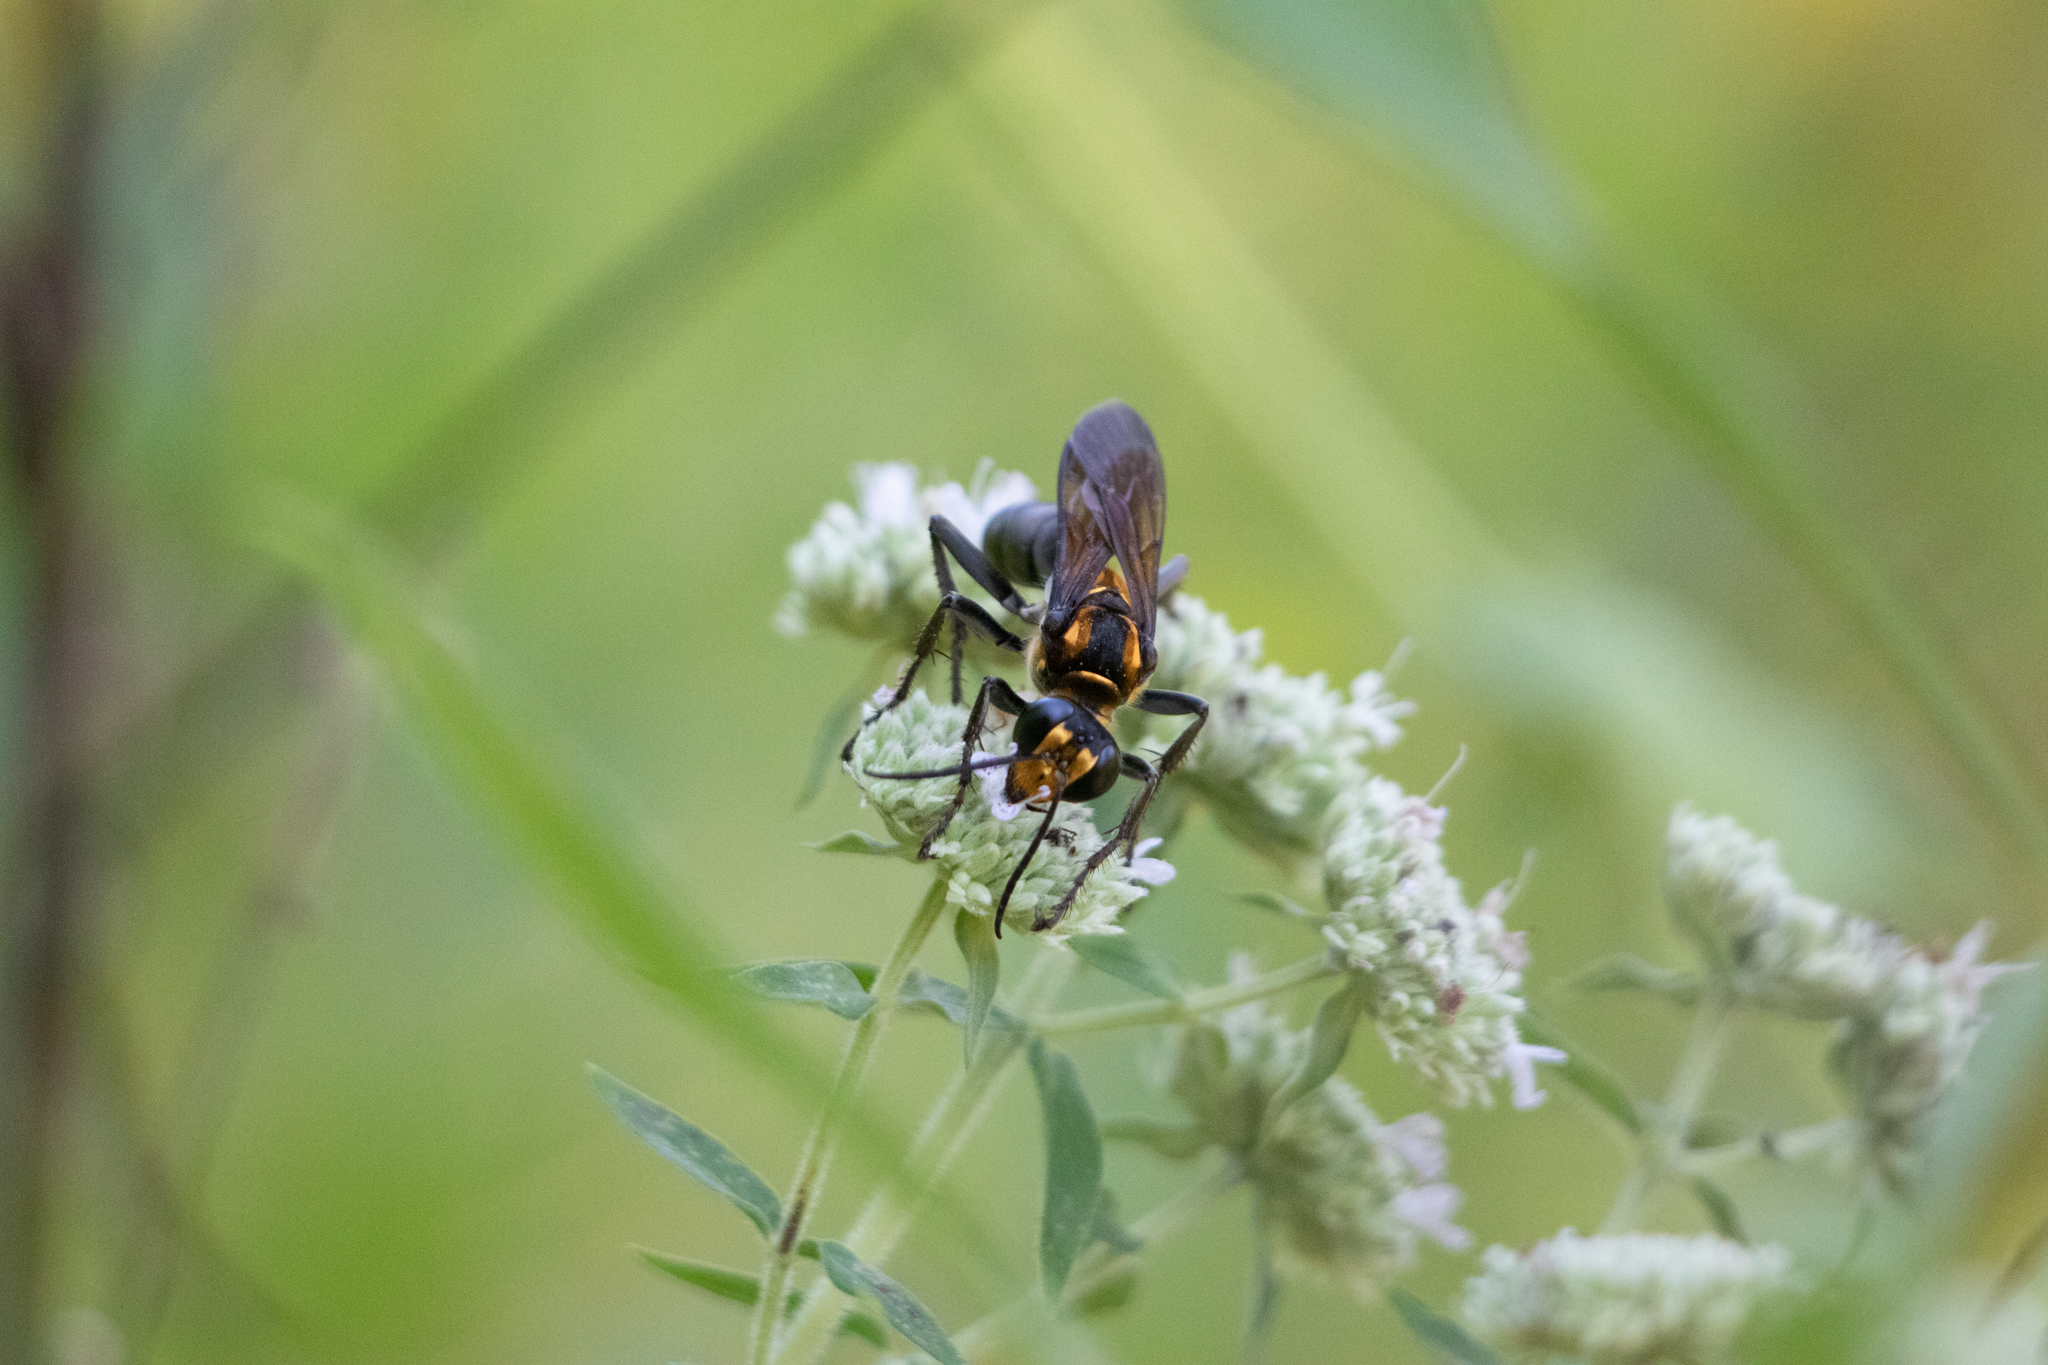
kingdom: Animalia
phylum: Arthropoda
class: Insecta
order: Hymenoptera
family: Sphecidae
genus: Sphex
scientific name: Sphex habenus
